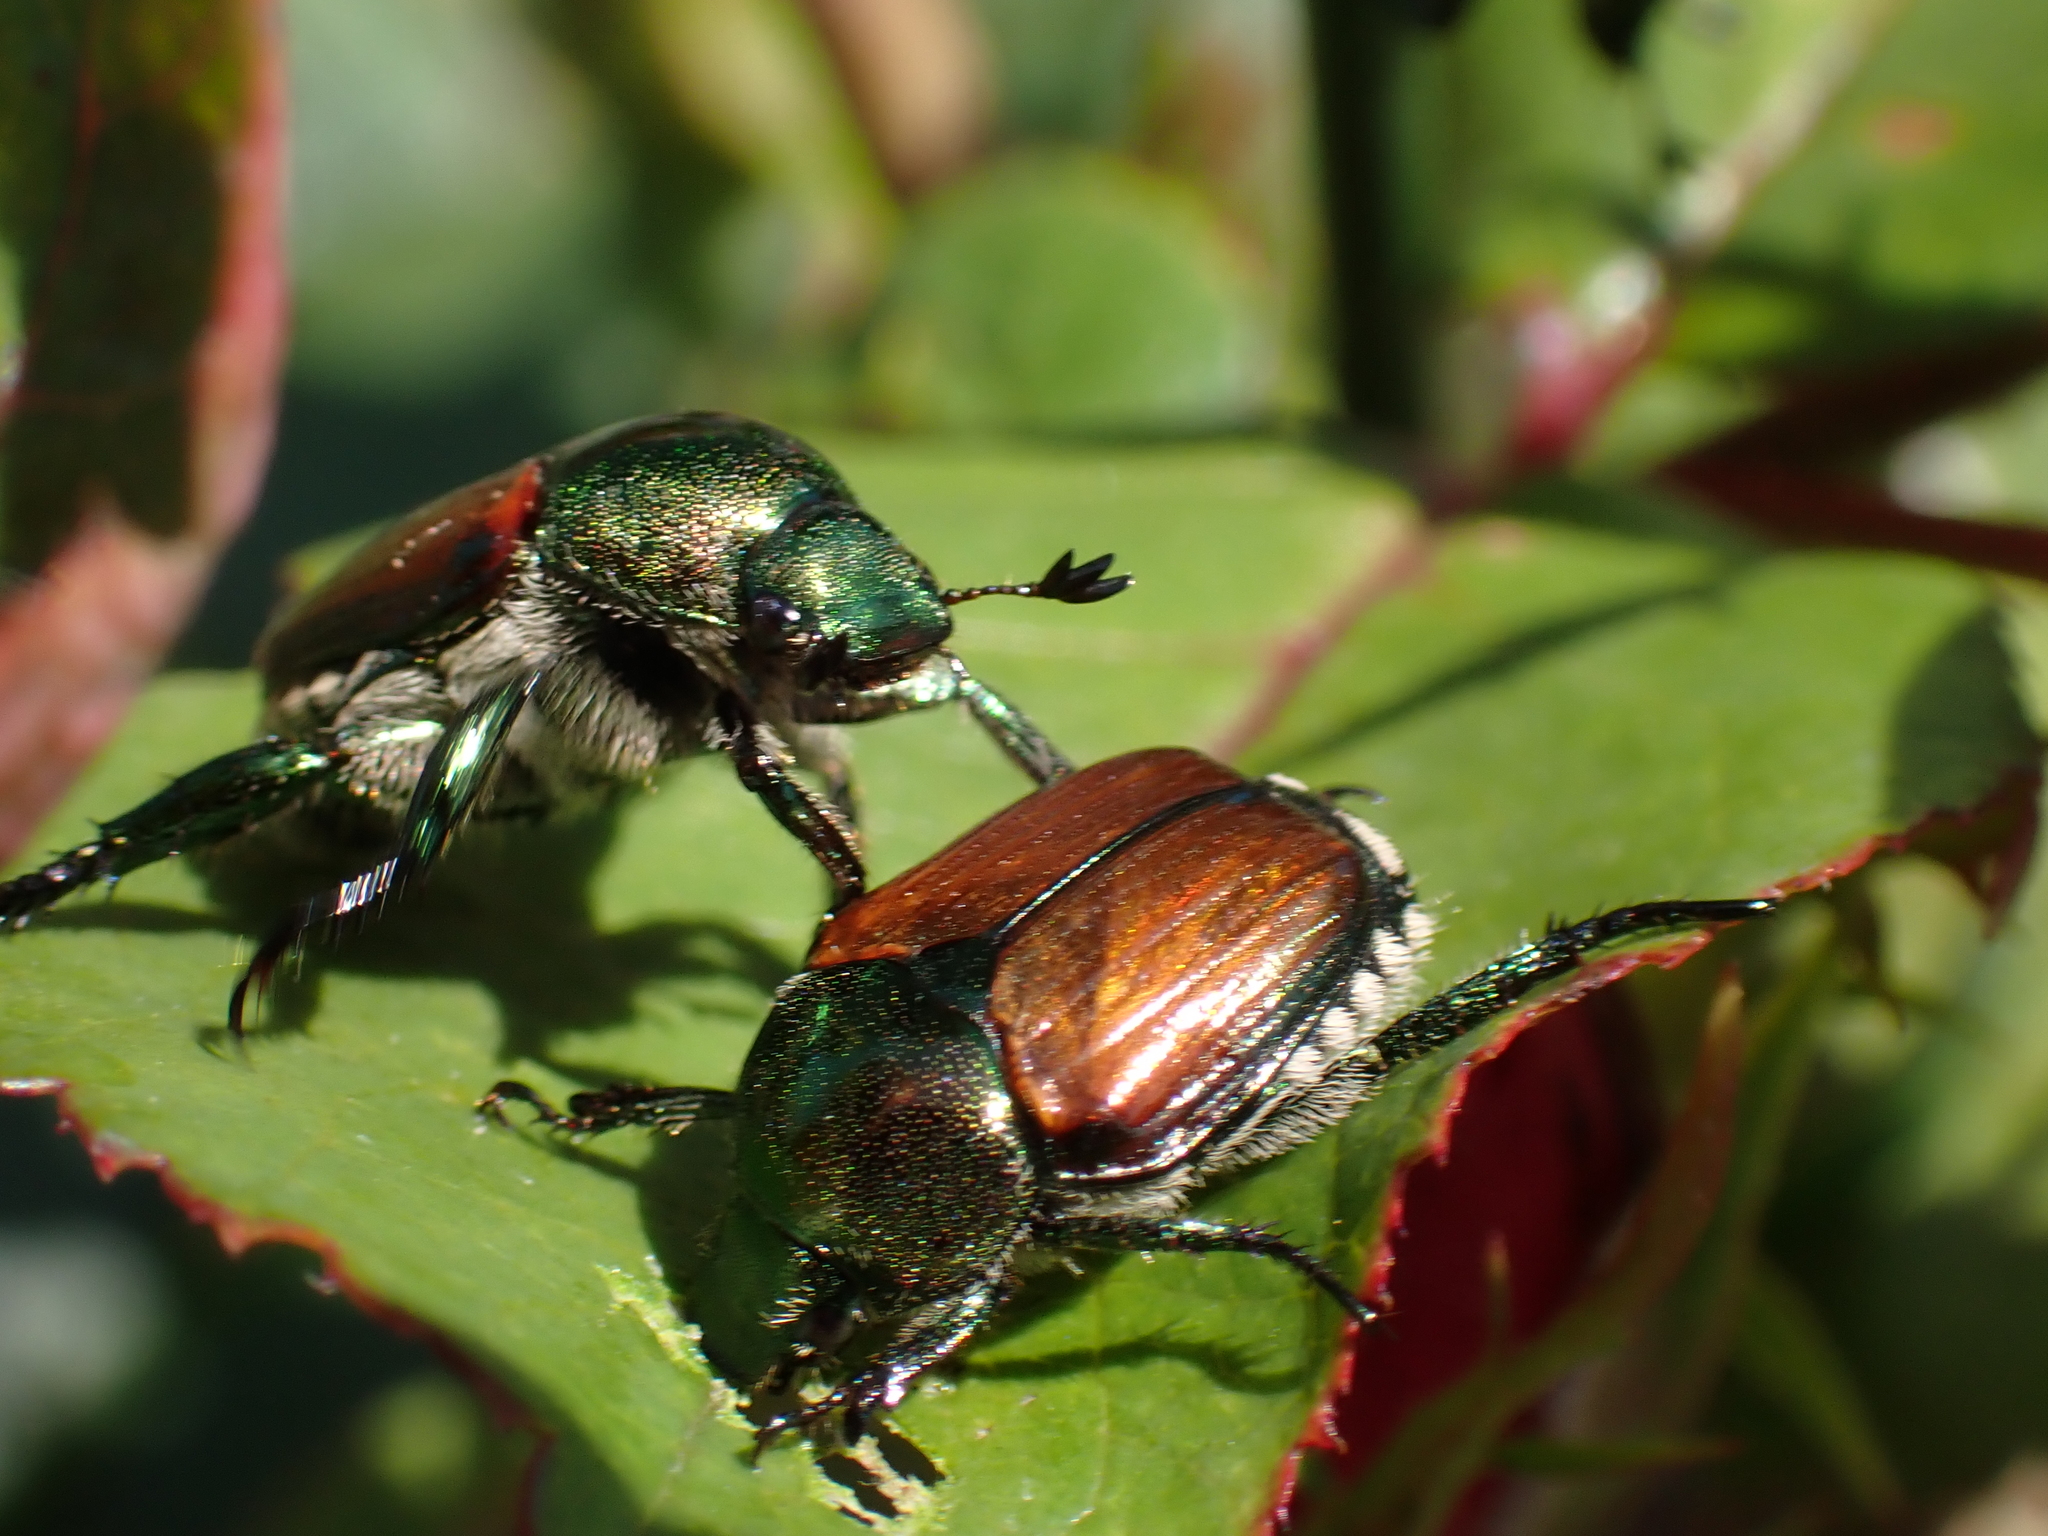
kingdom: Animalia
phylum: Arthropoda
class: Insecta
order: Coleoptera
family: Scarabaeidae
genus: Popillia
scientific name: Popillia japonica
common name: Japanese beetle
